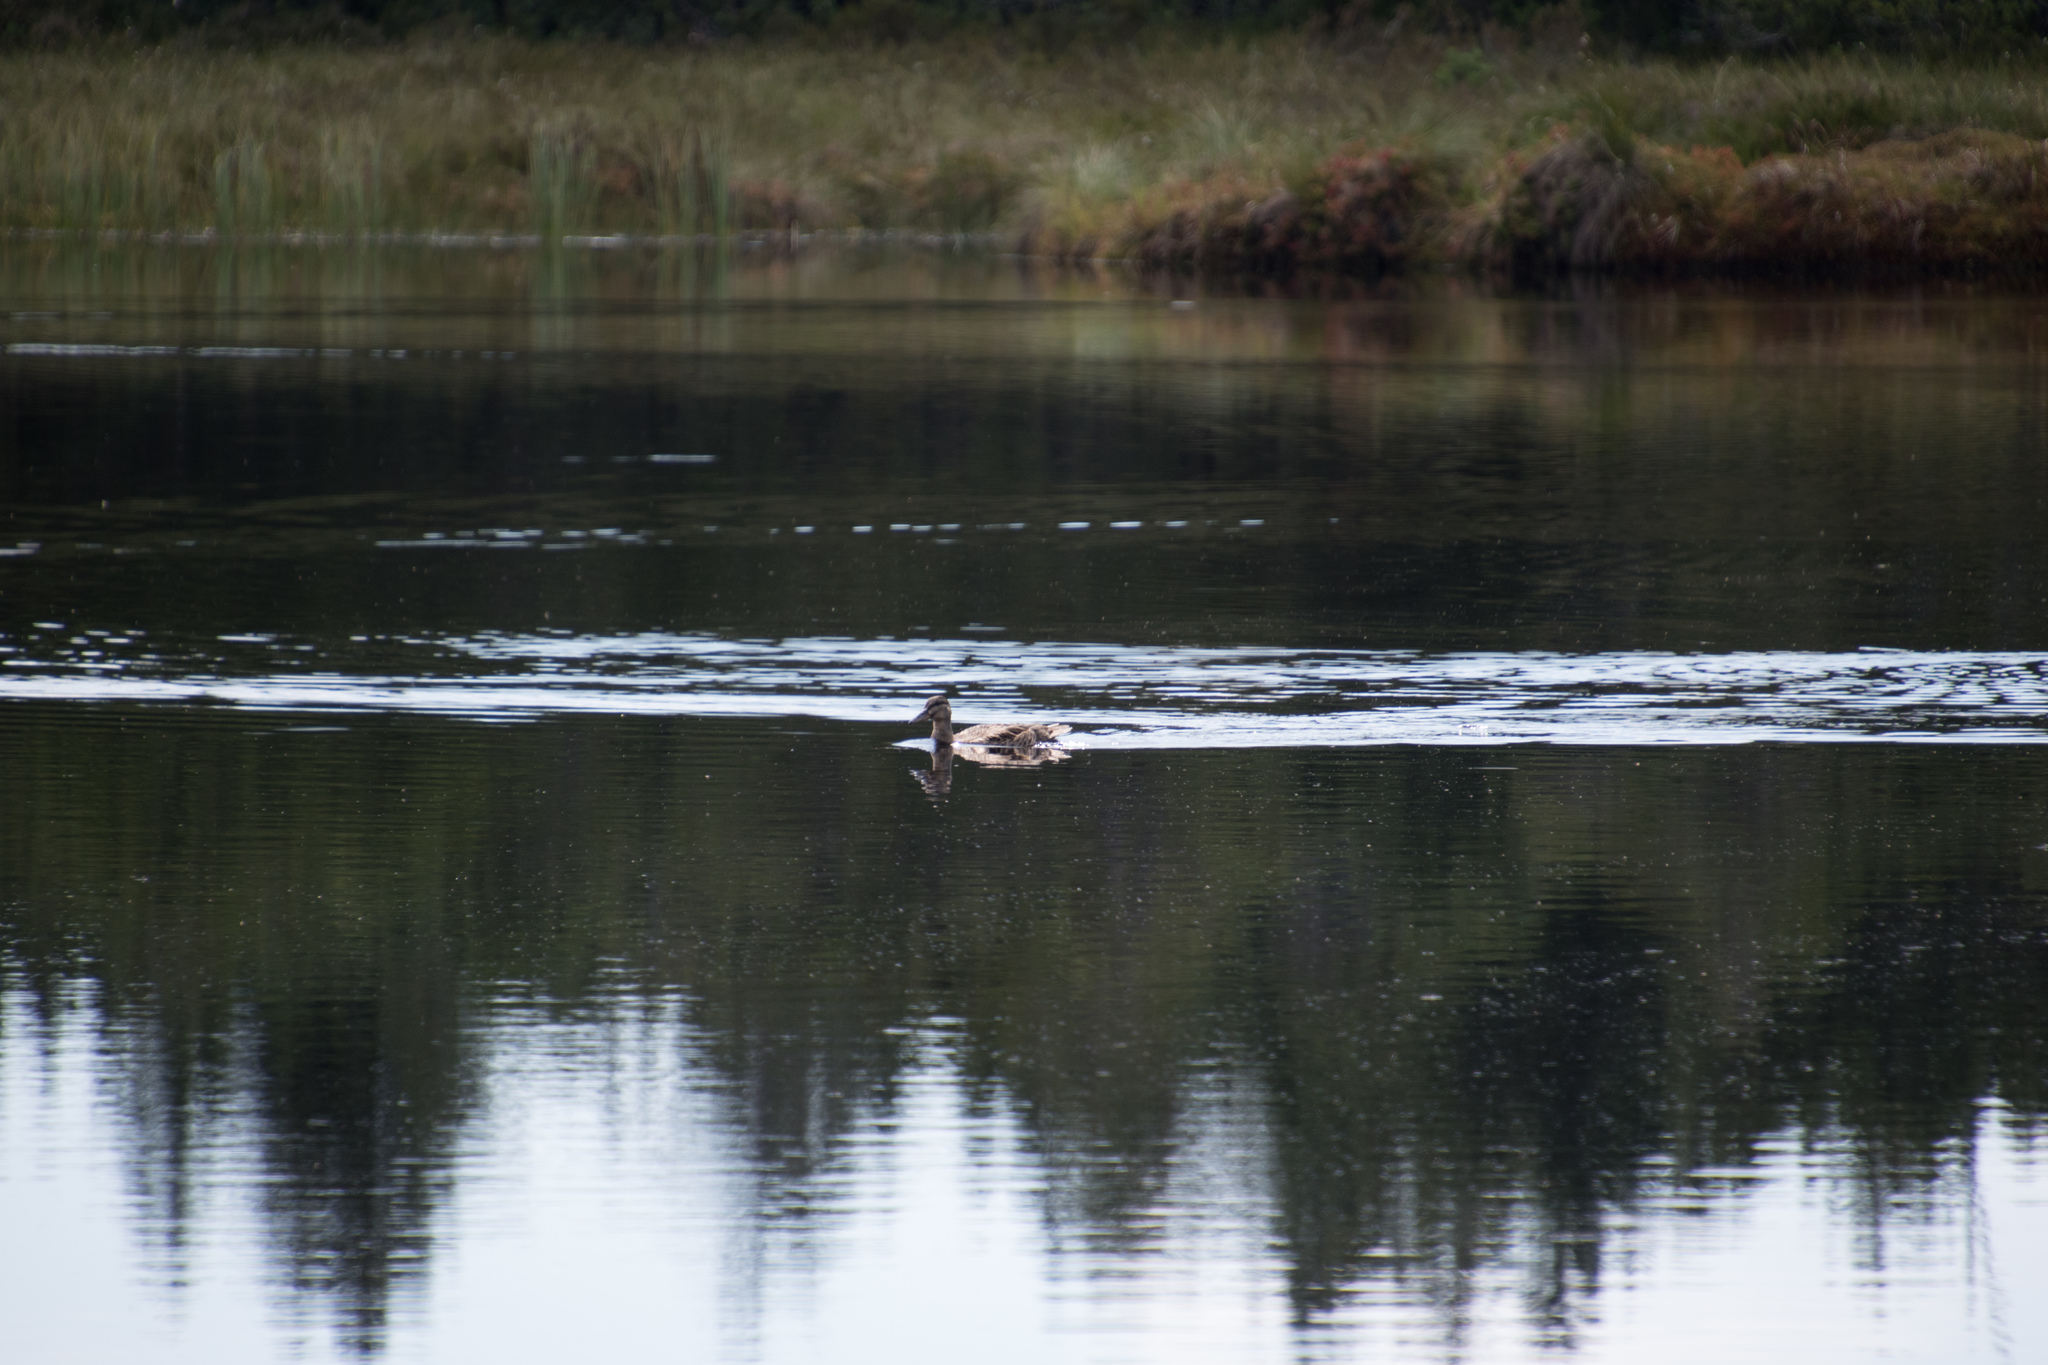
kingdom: Animalia
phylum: Chordata
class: Aves
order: Anseriformes
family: Anatidae
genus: Anas
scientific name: Anas platyrhynchos
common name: Mallard
